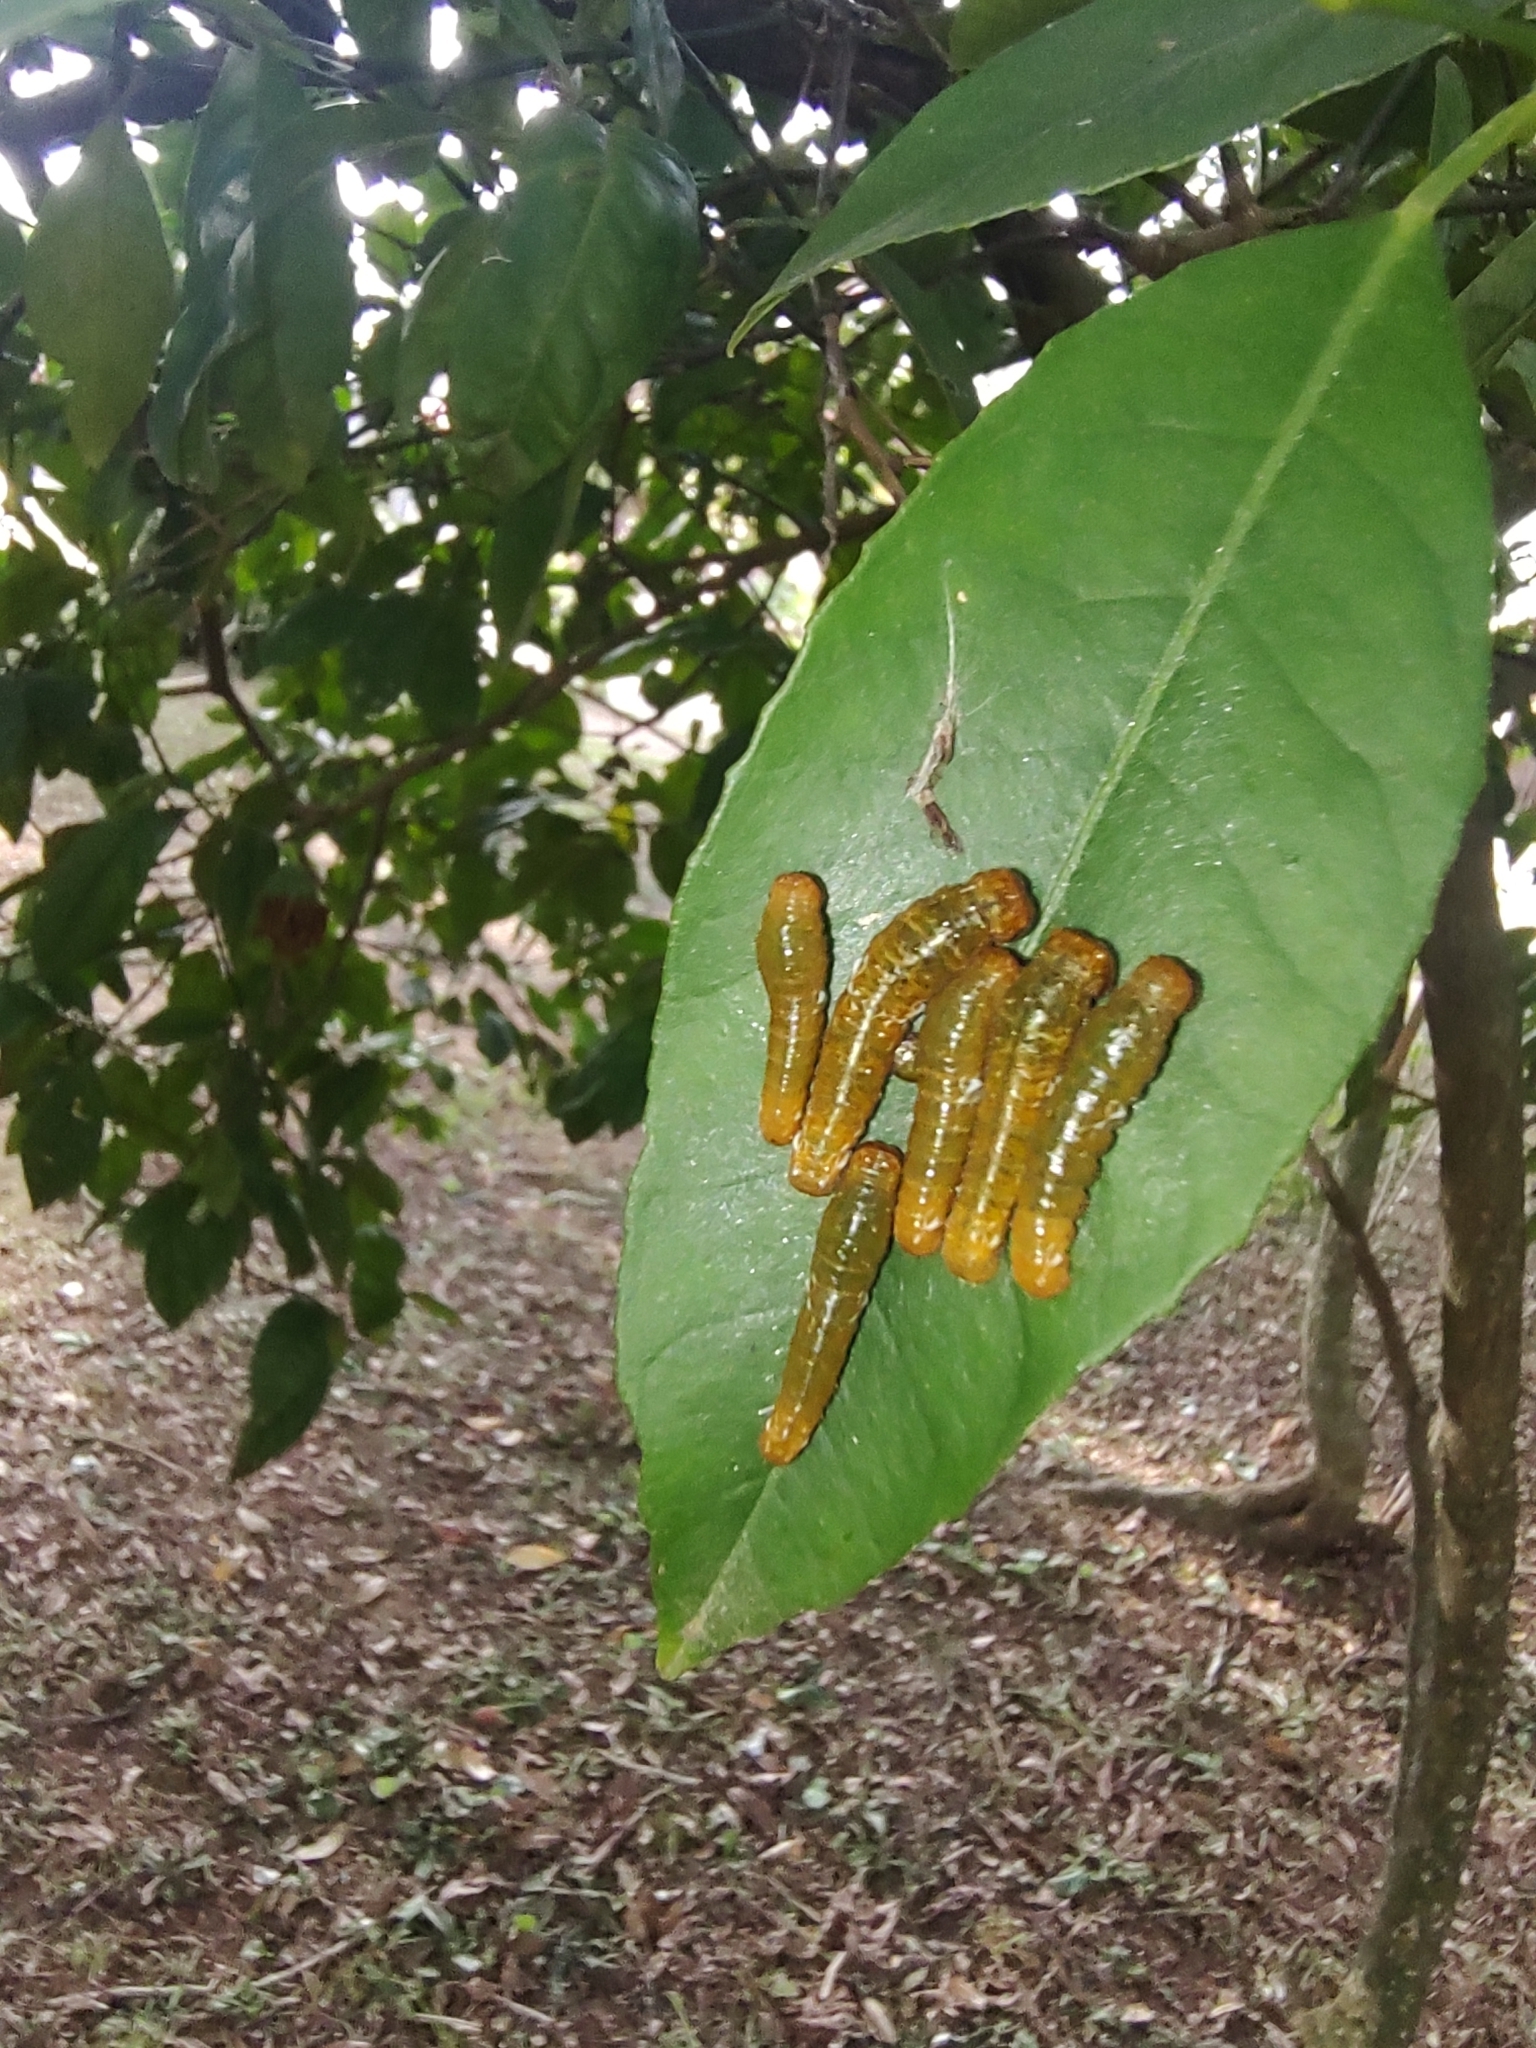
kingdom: Animalia
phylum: Arthropoda
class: Insecta
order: Lepidoptera
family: Papilionidae
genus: Papilio
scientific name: Papilio anchisiades
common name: Idaes swallowtail
